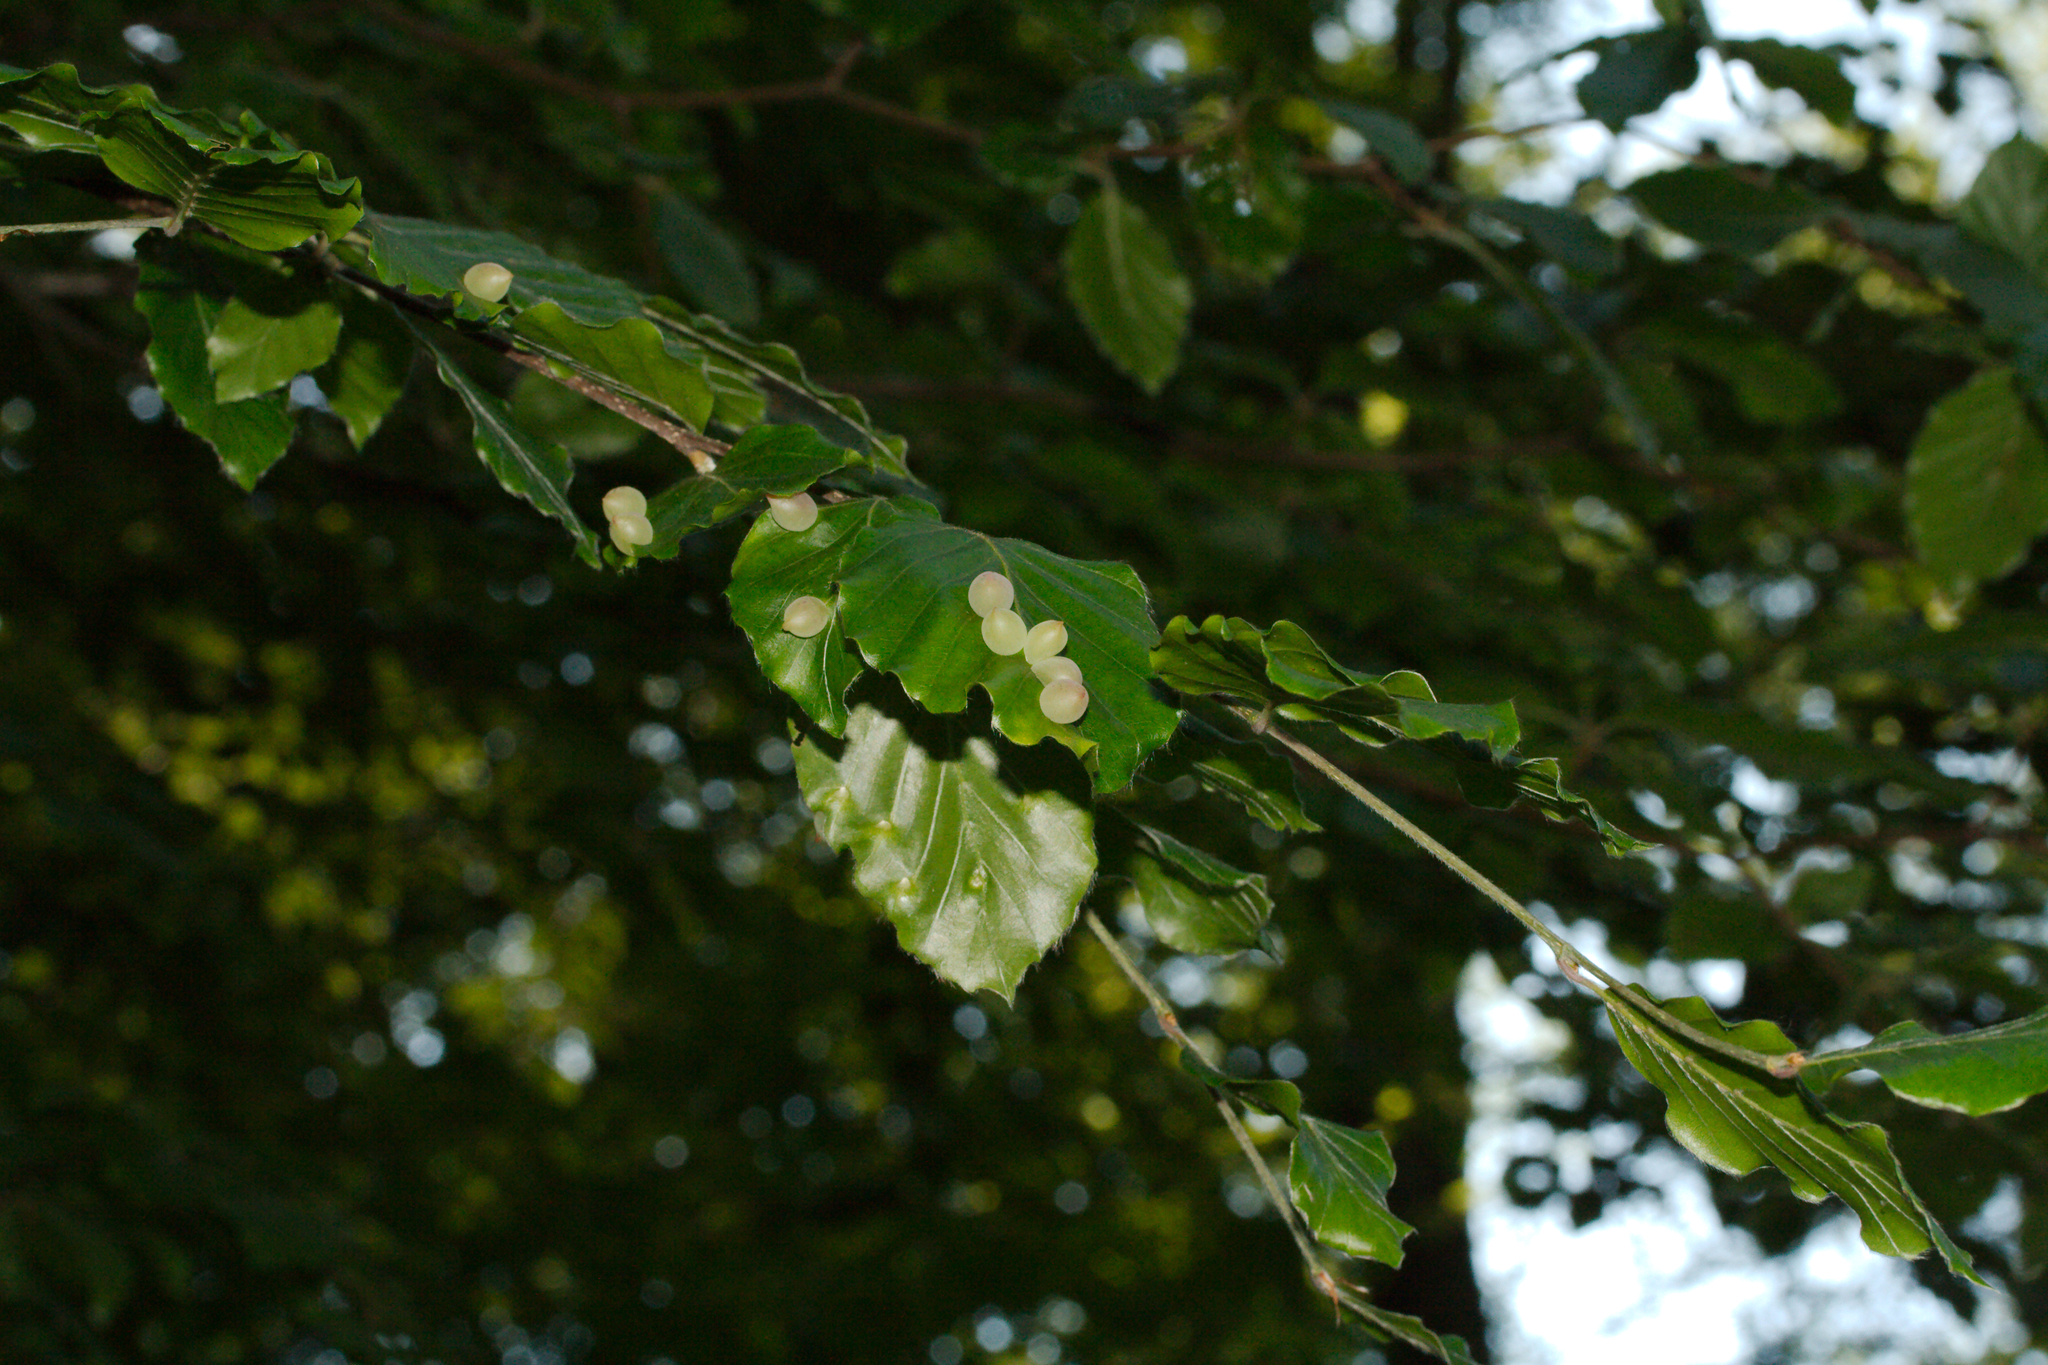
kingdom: Animalia
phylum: Arthropoda
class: Insecta
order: Diptera
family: Cecidomyiidae
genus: Mikiola
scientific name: Mikiola fagi
